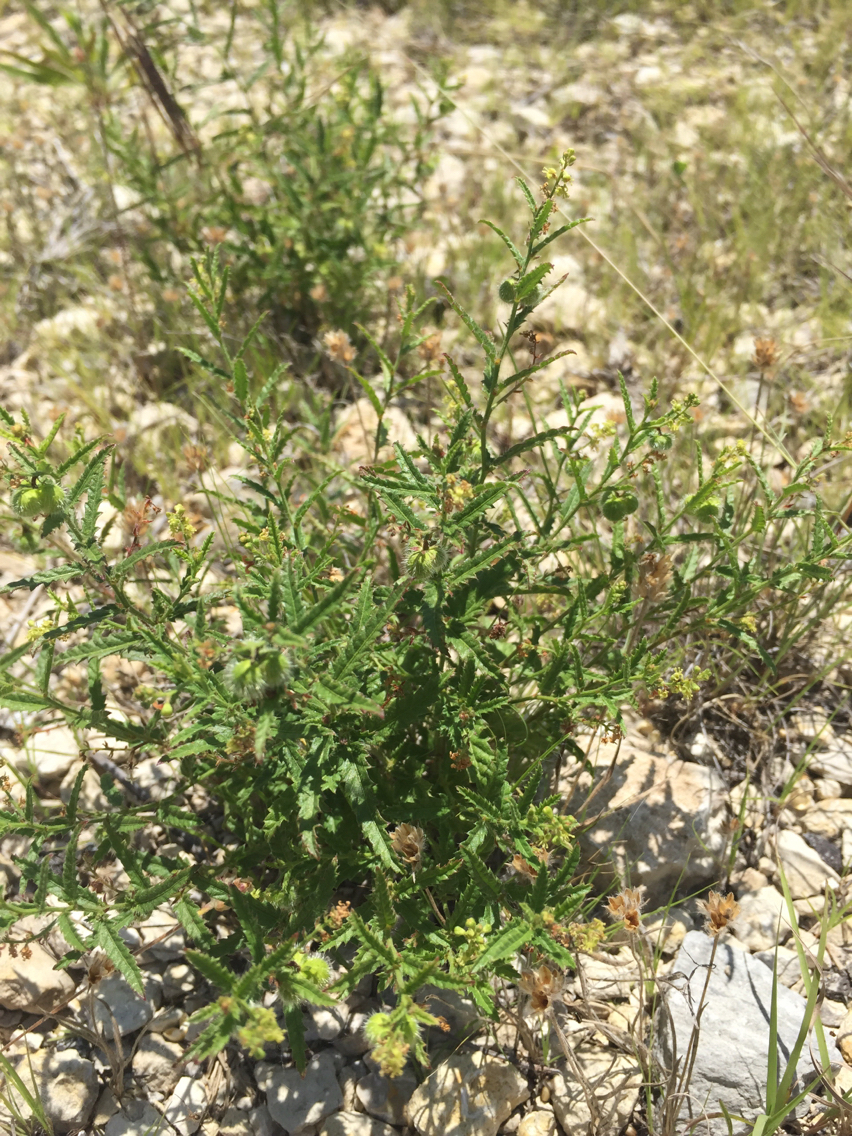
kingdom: Plantae
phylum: Tracheophyta
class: Magnoliopsida
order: Malpighiales
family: Euphorbiaceae
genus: Tragia
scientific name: Tragia ramosa
